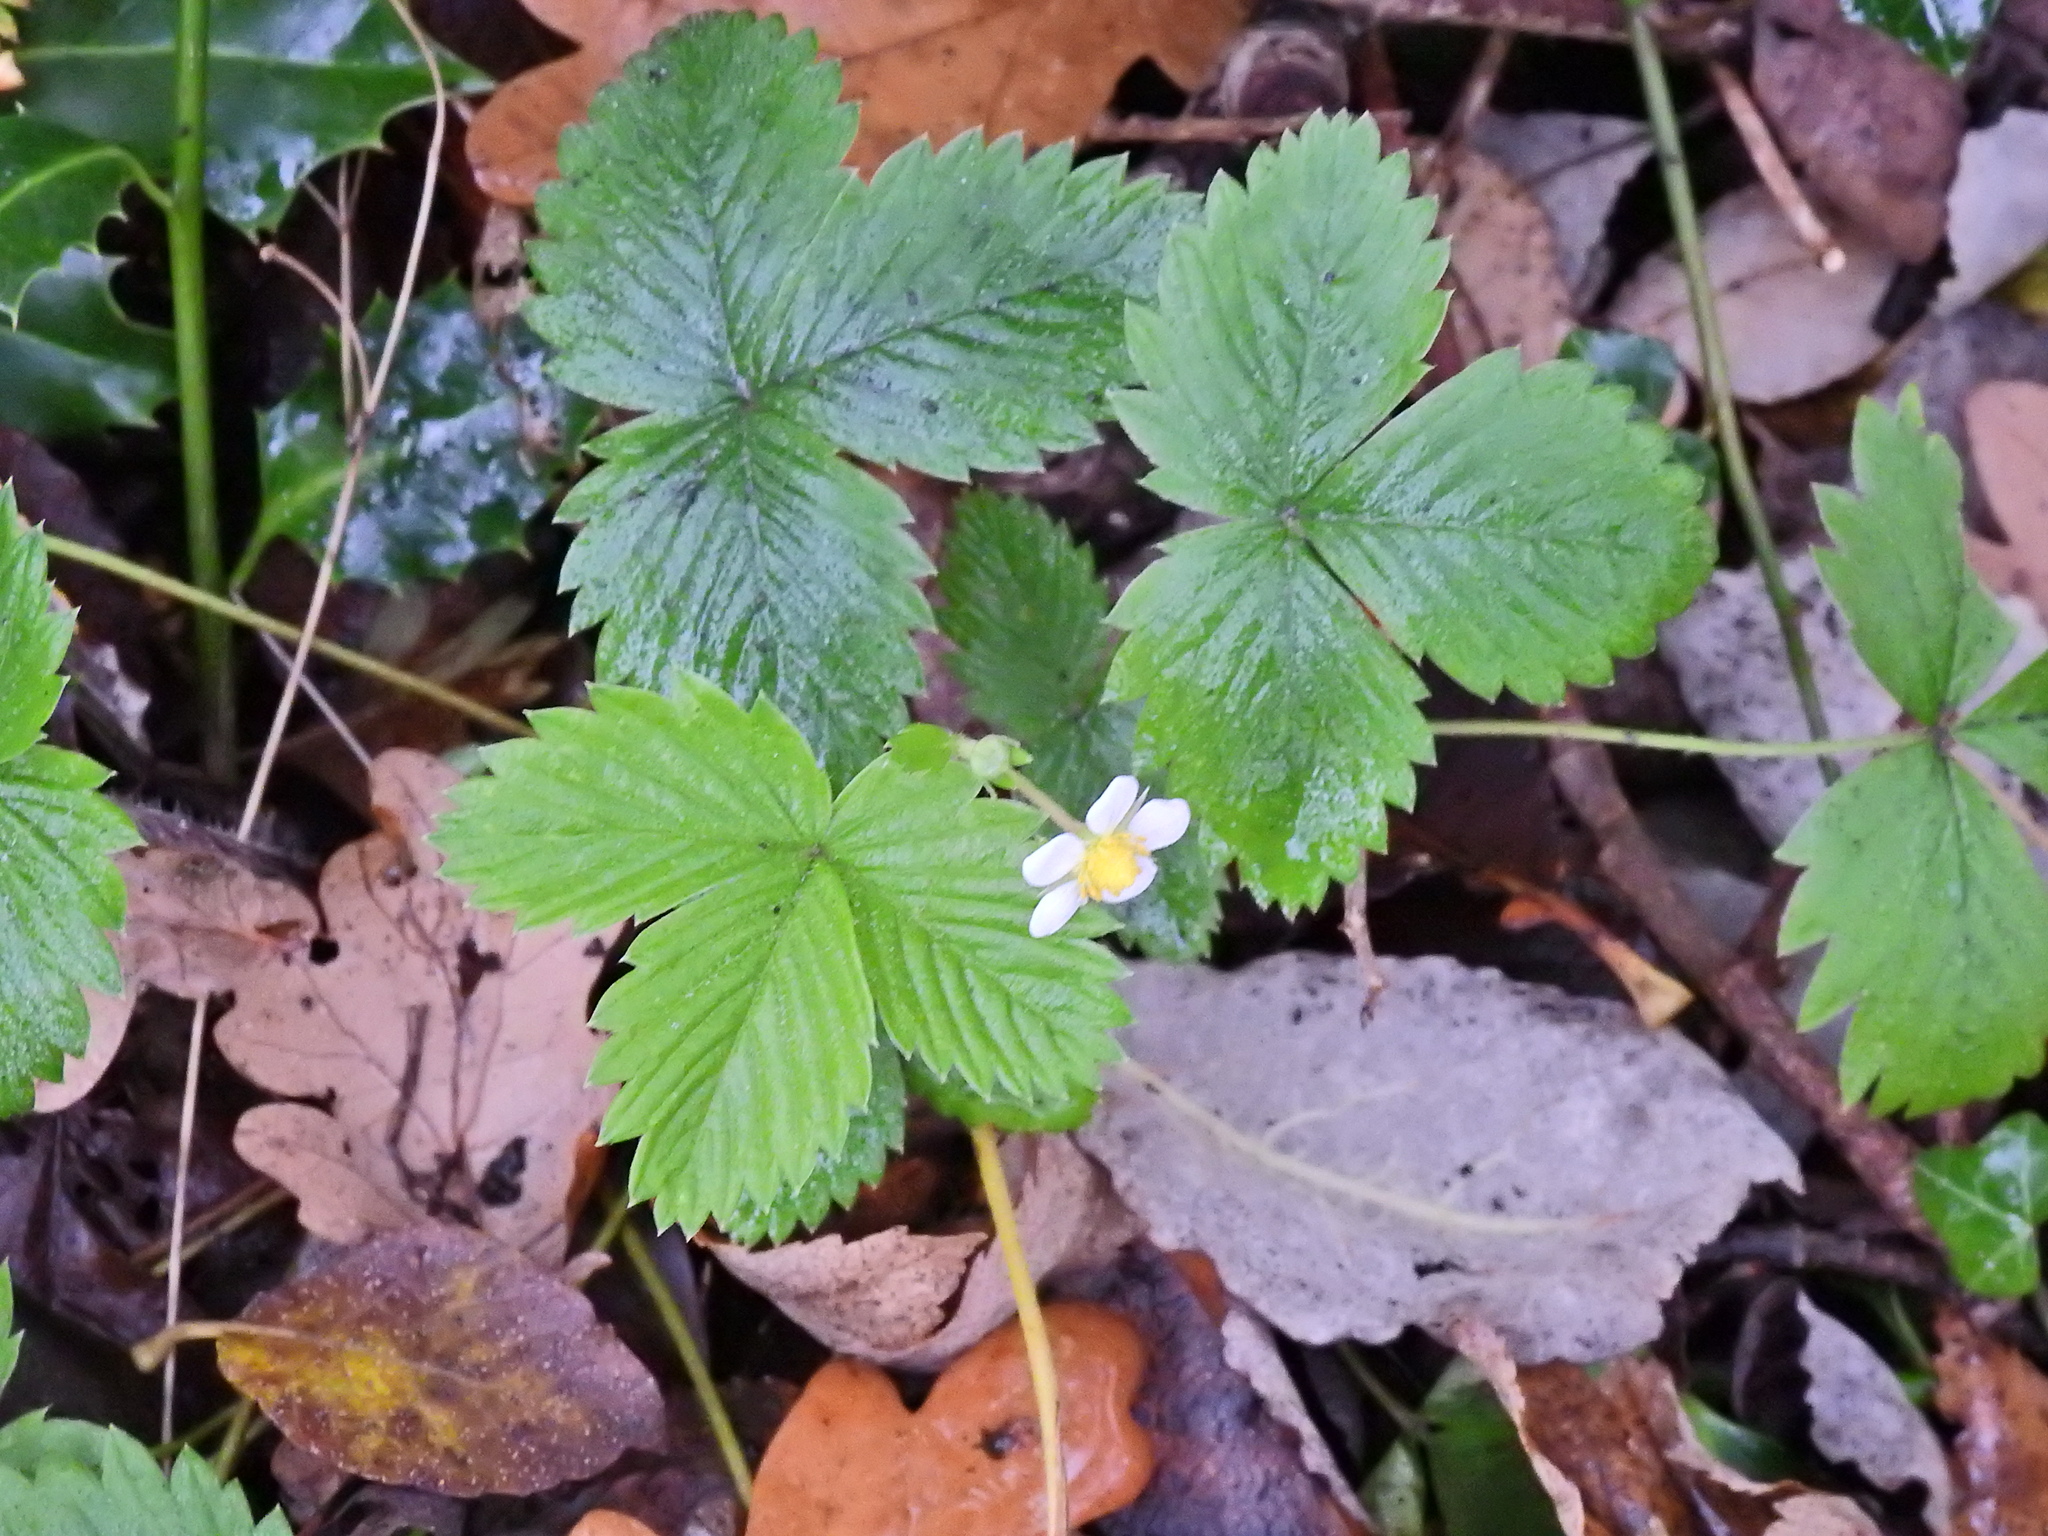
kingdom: Plantae
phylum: Tracheophyta
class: Magnoliopsida
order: Rosales
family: Rosaceae
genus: Fragaria
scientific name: Fragaria vesca
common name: Wild strawberry
